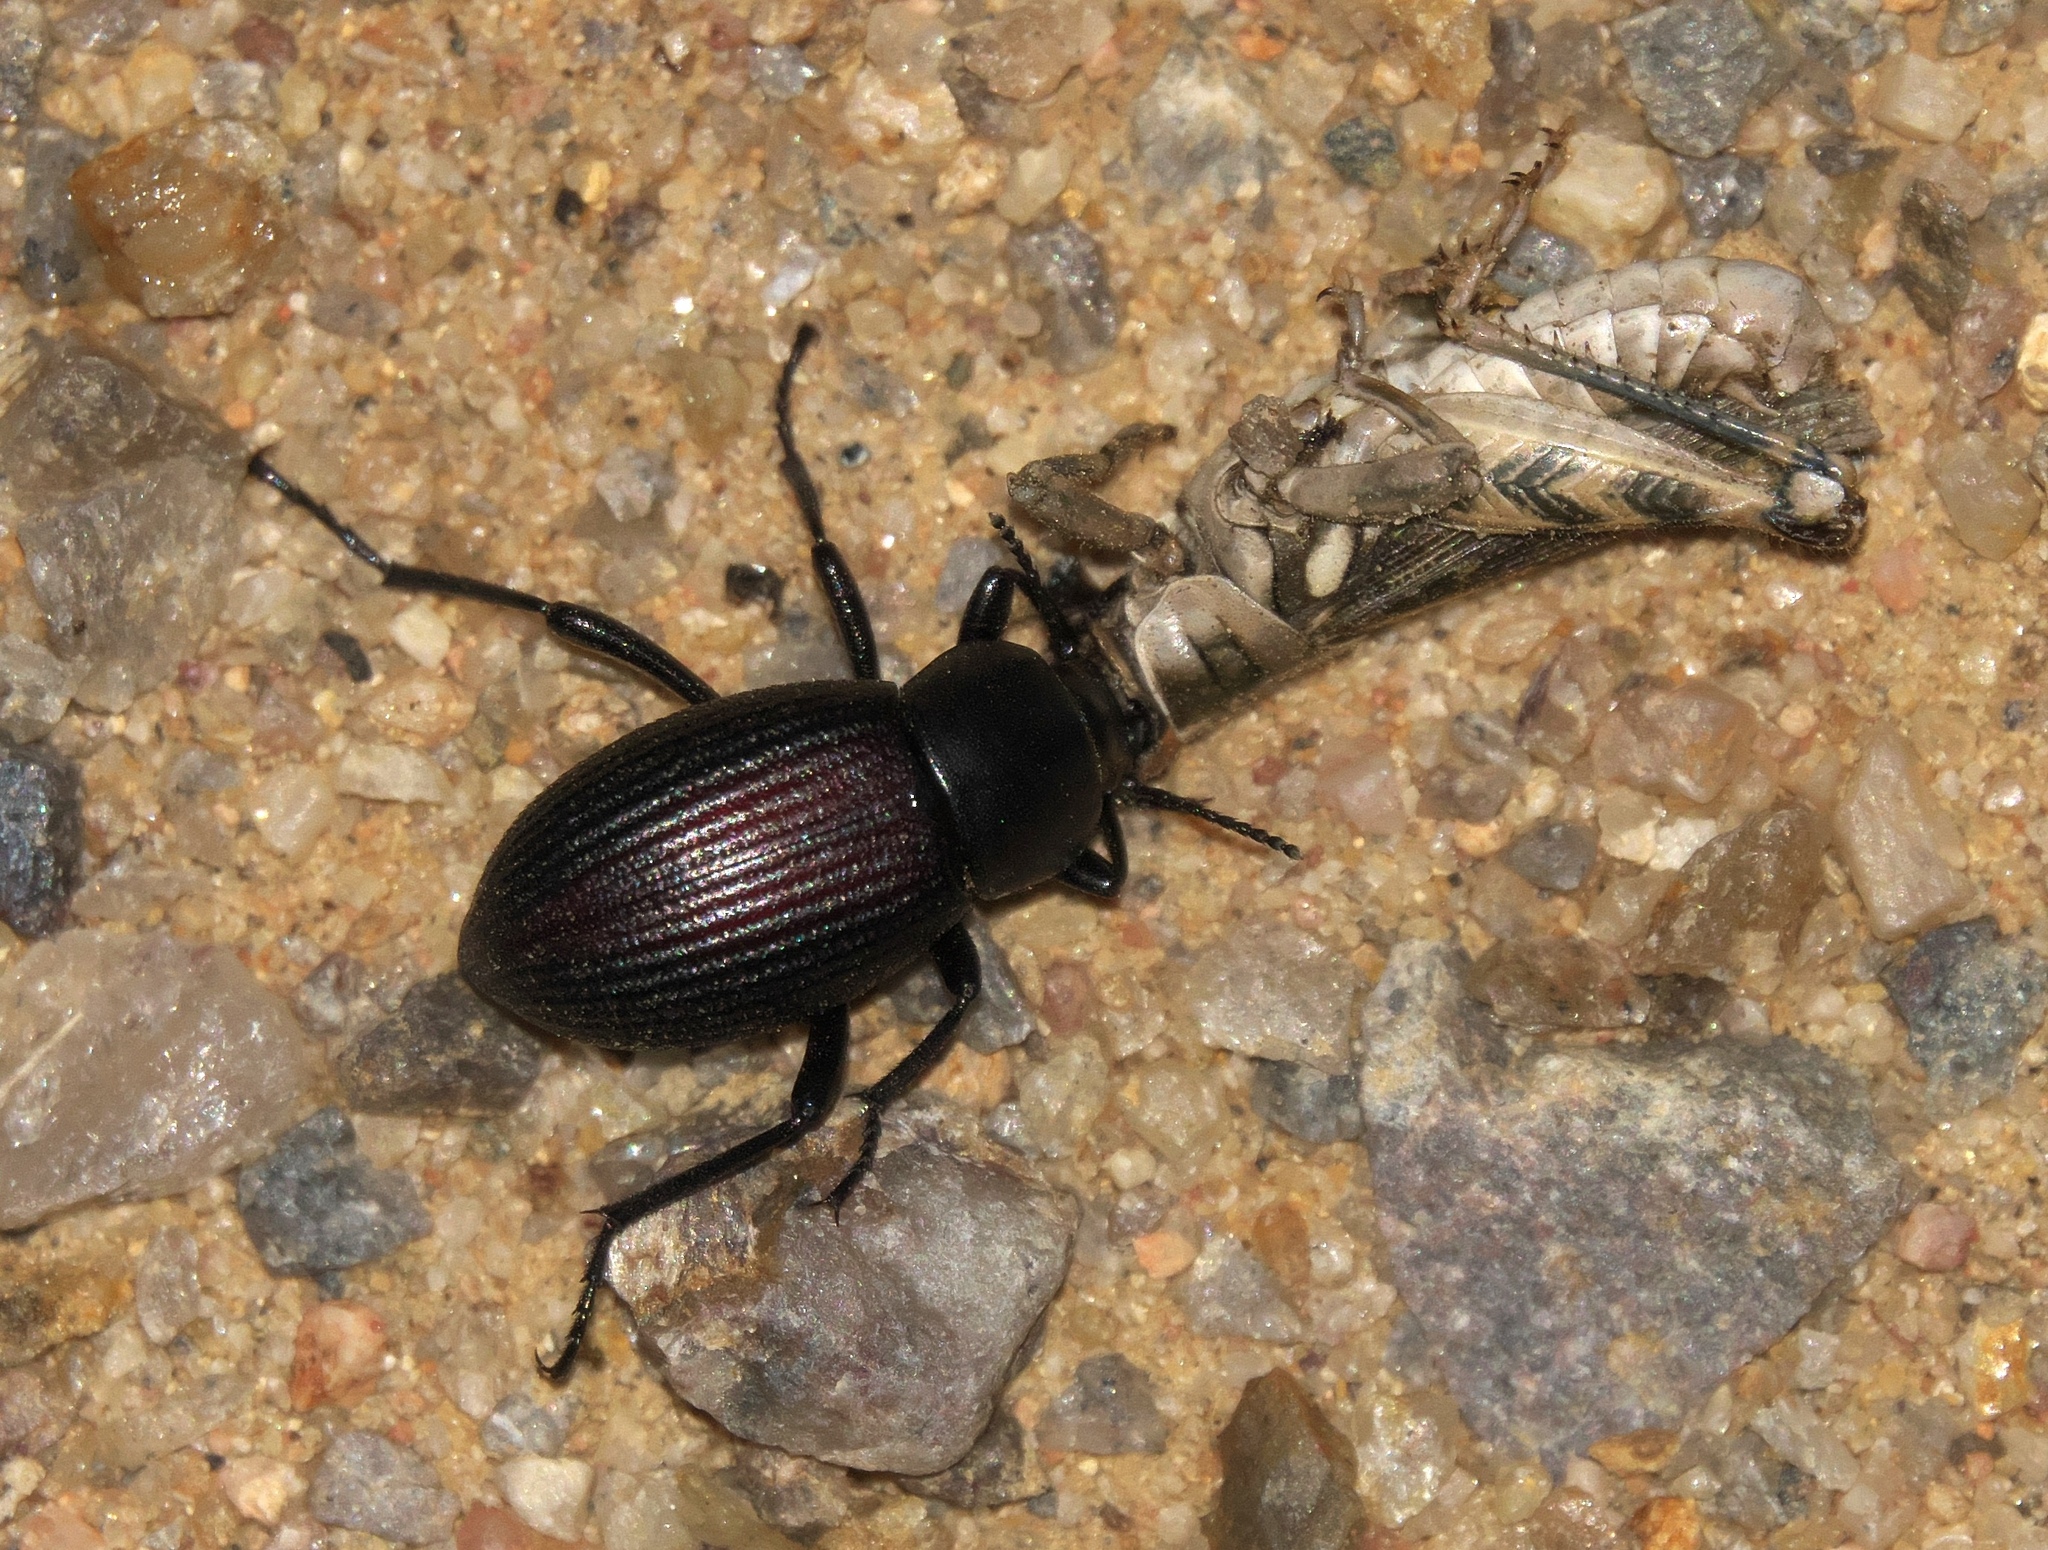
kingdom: Animalia
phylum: Arthropoda
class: Insecta
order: Coleoptera
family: Tenebrionidae
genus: Eleodes
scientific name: Eleodes carbonaria
